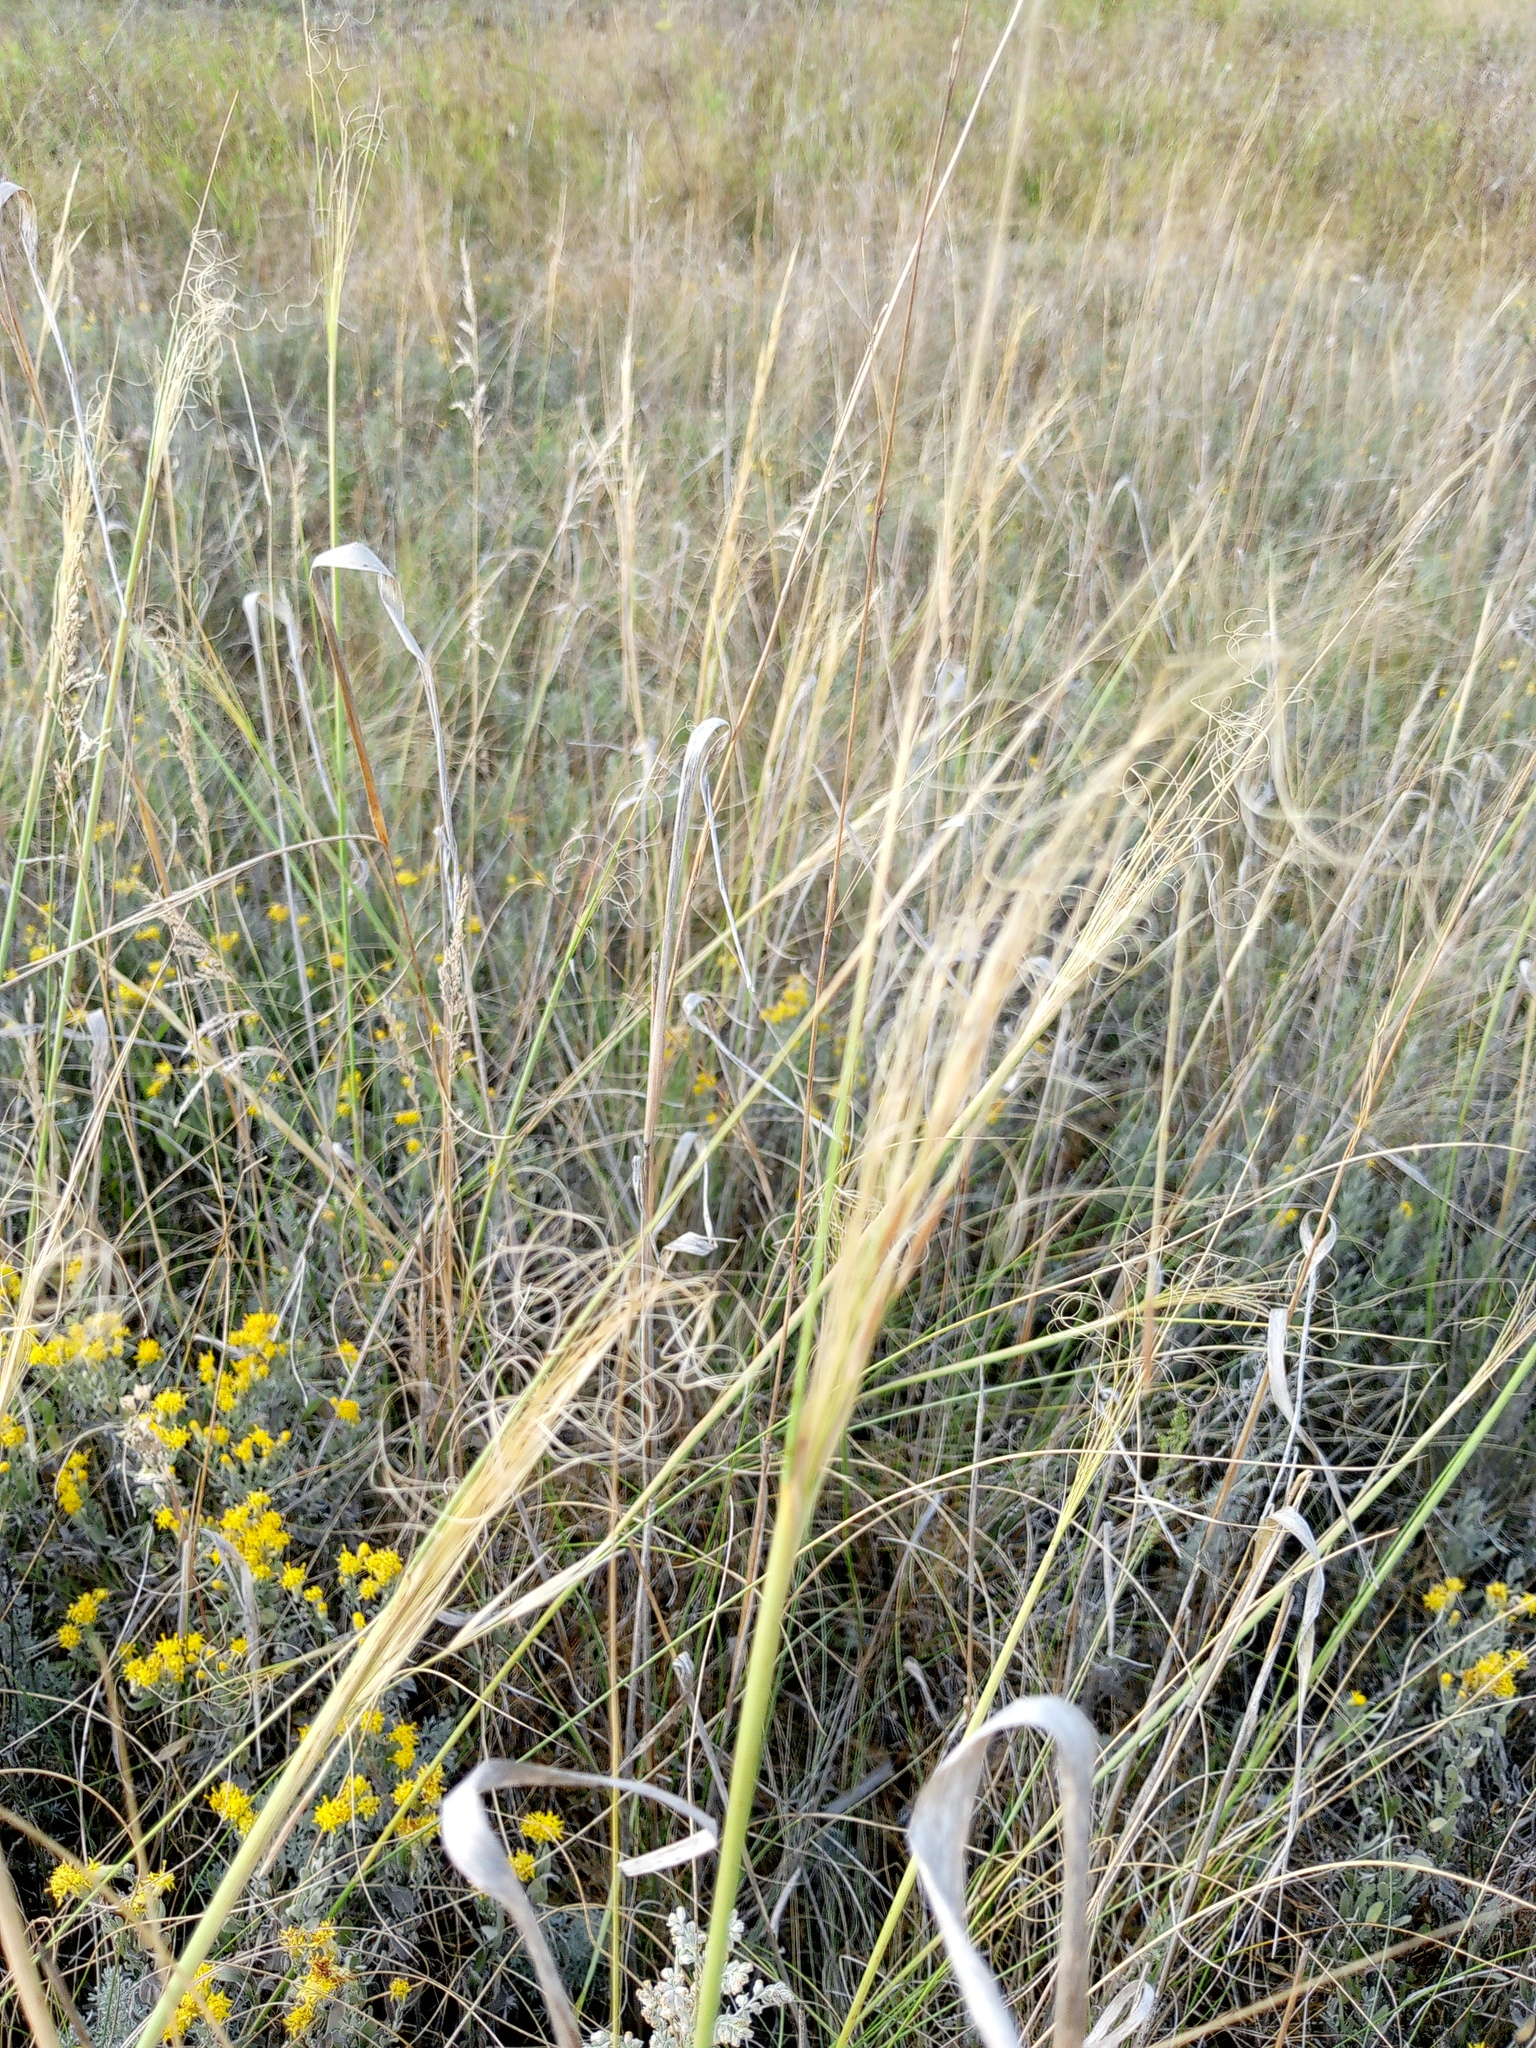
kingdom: Plantae
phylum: Tracheophyta
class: Liliopsida
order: Poales
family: Poaceae
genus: Stipa
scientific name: Stipa capillata
